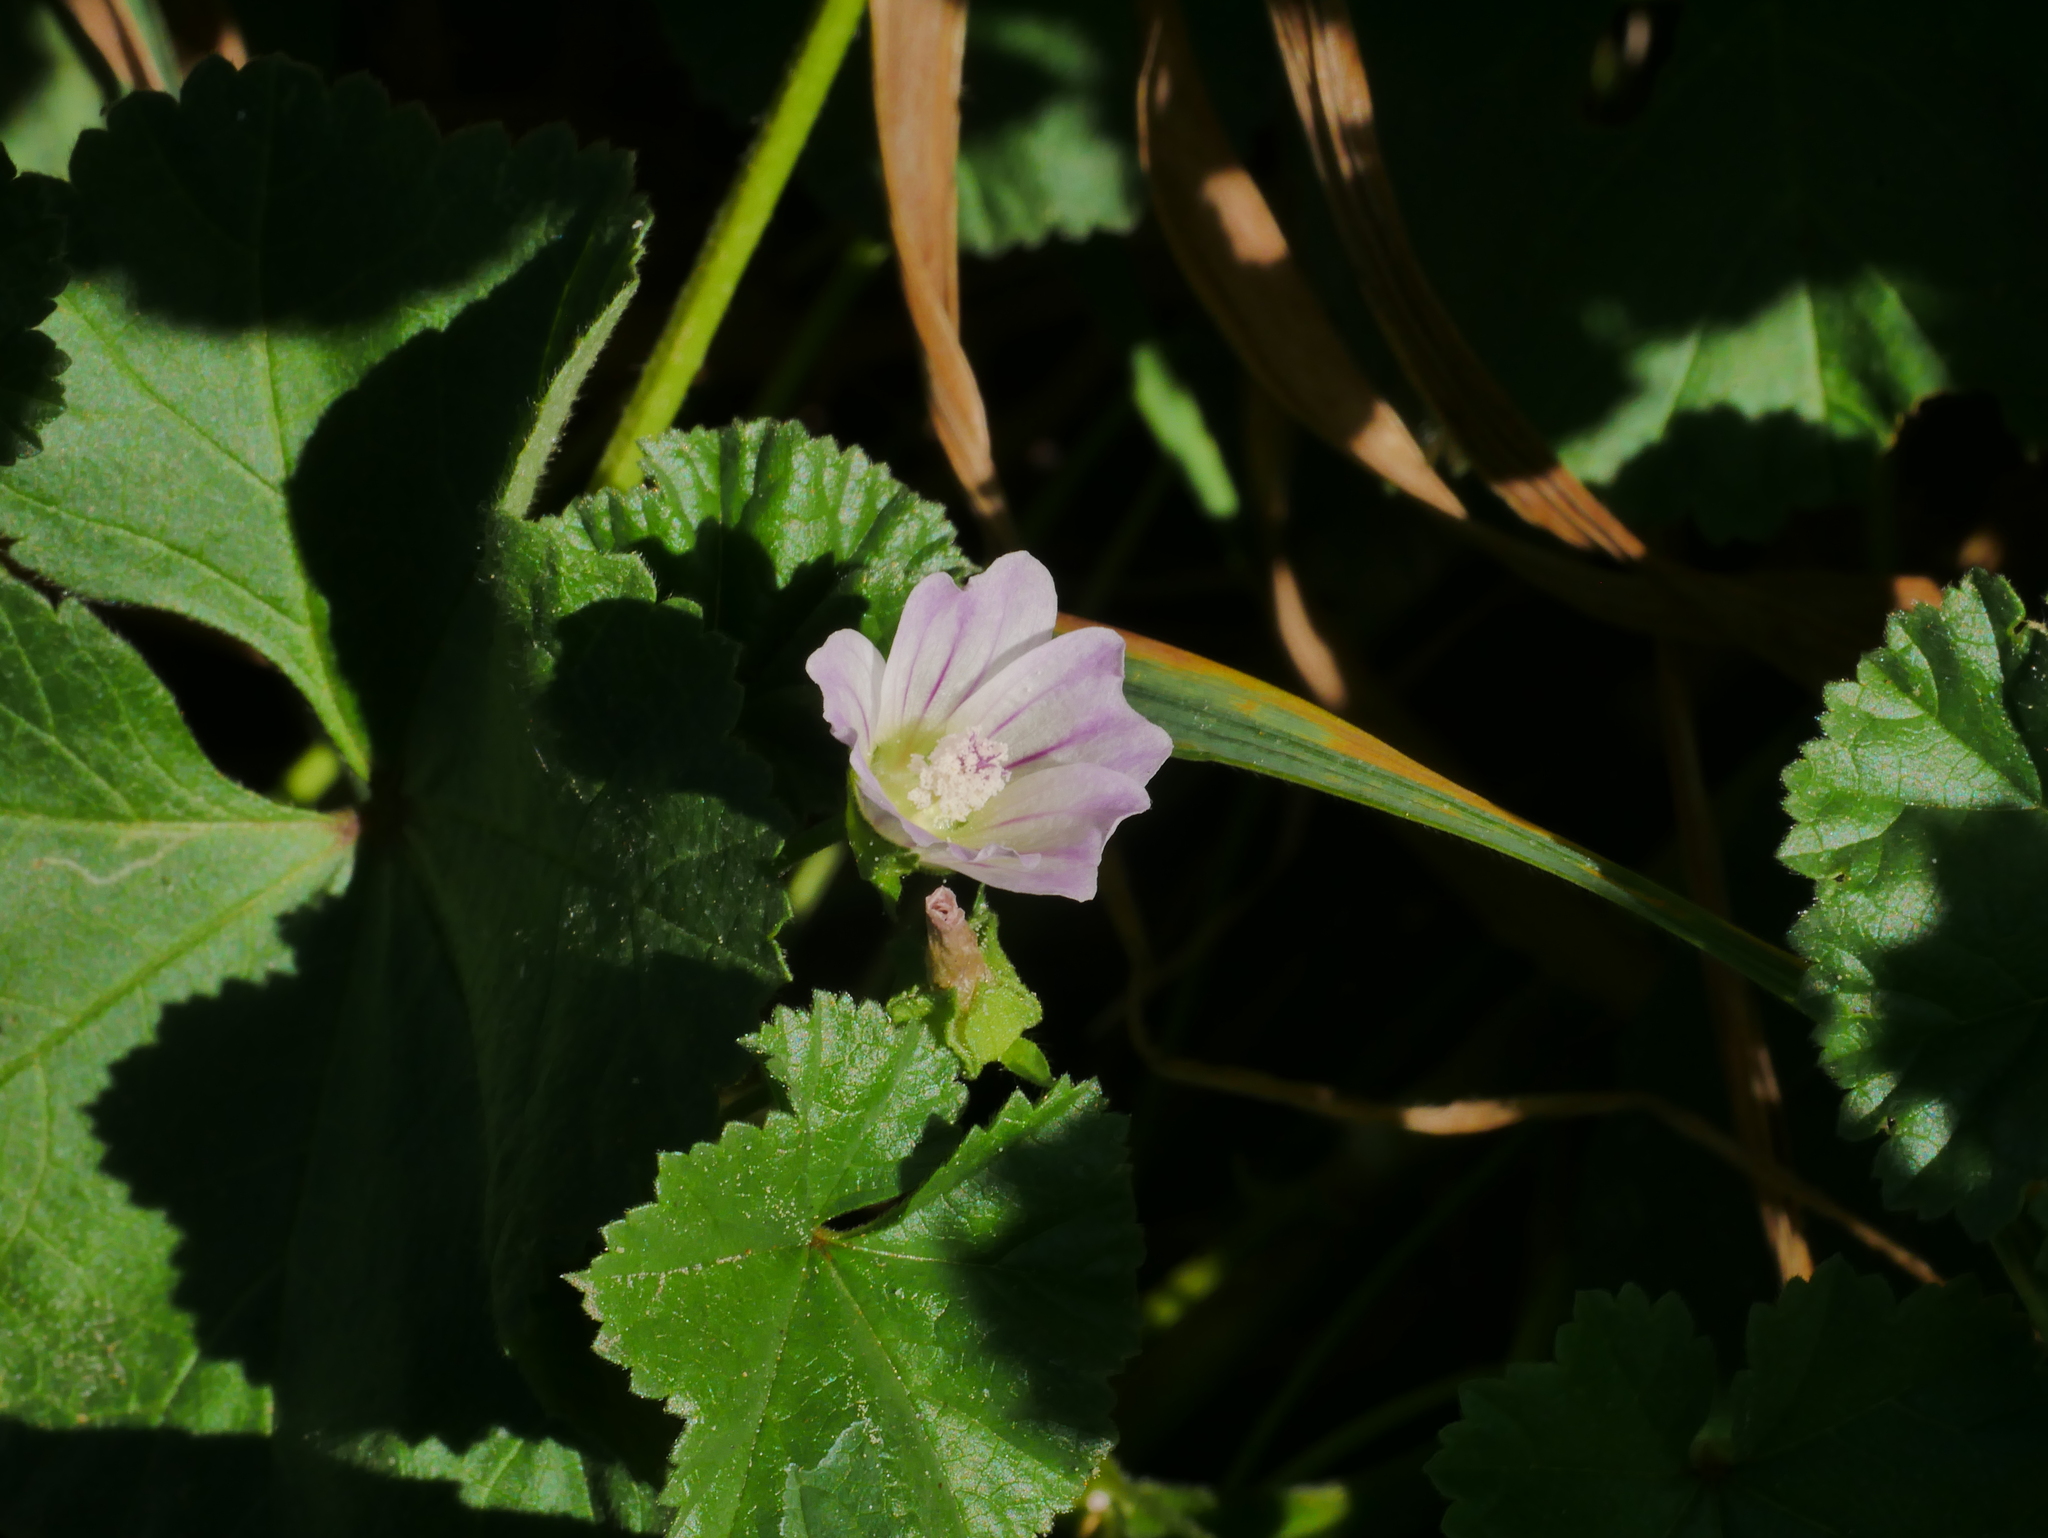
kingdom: Plantae
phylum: Tracheophyta
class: Magnoliopsida
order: Malvales
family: Malvaceae
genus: Malva
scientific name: Malva neglecta
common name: Common mallow
